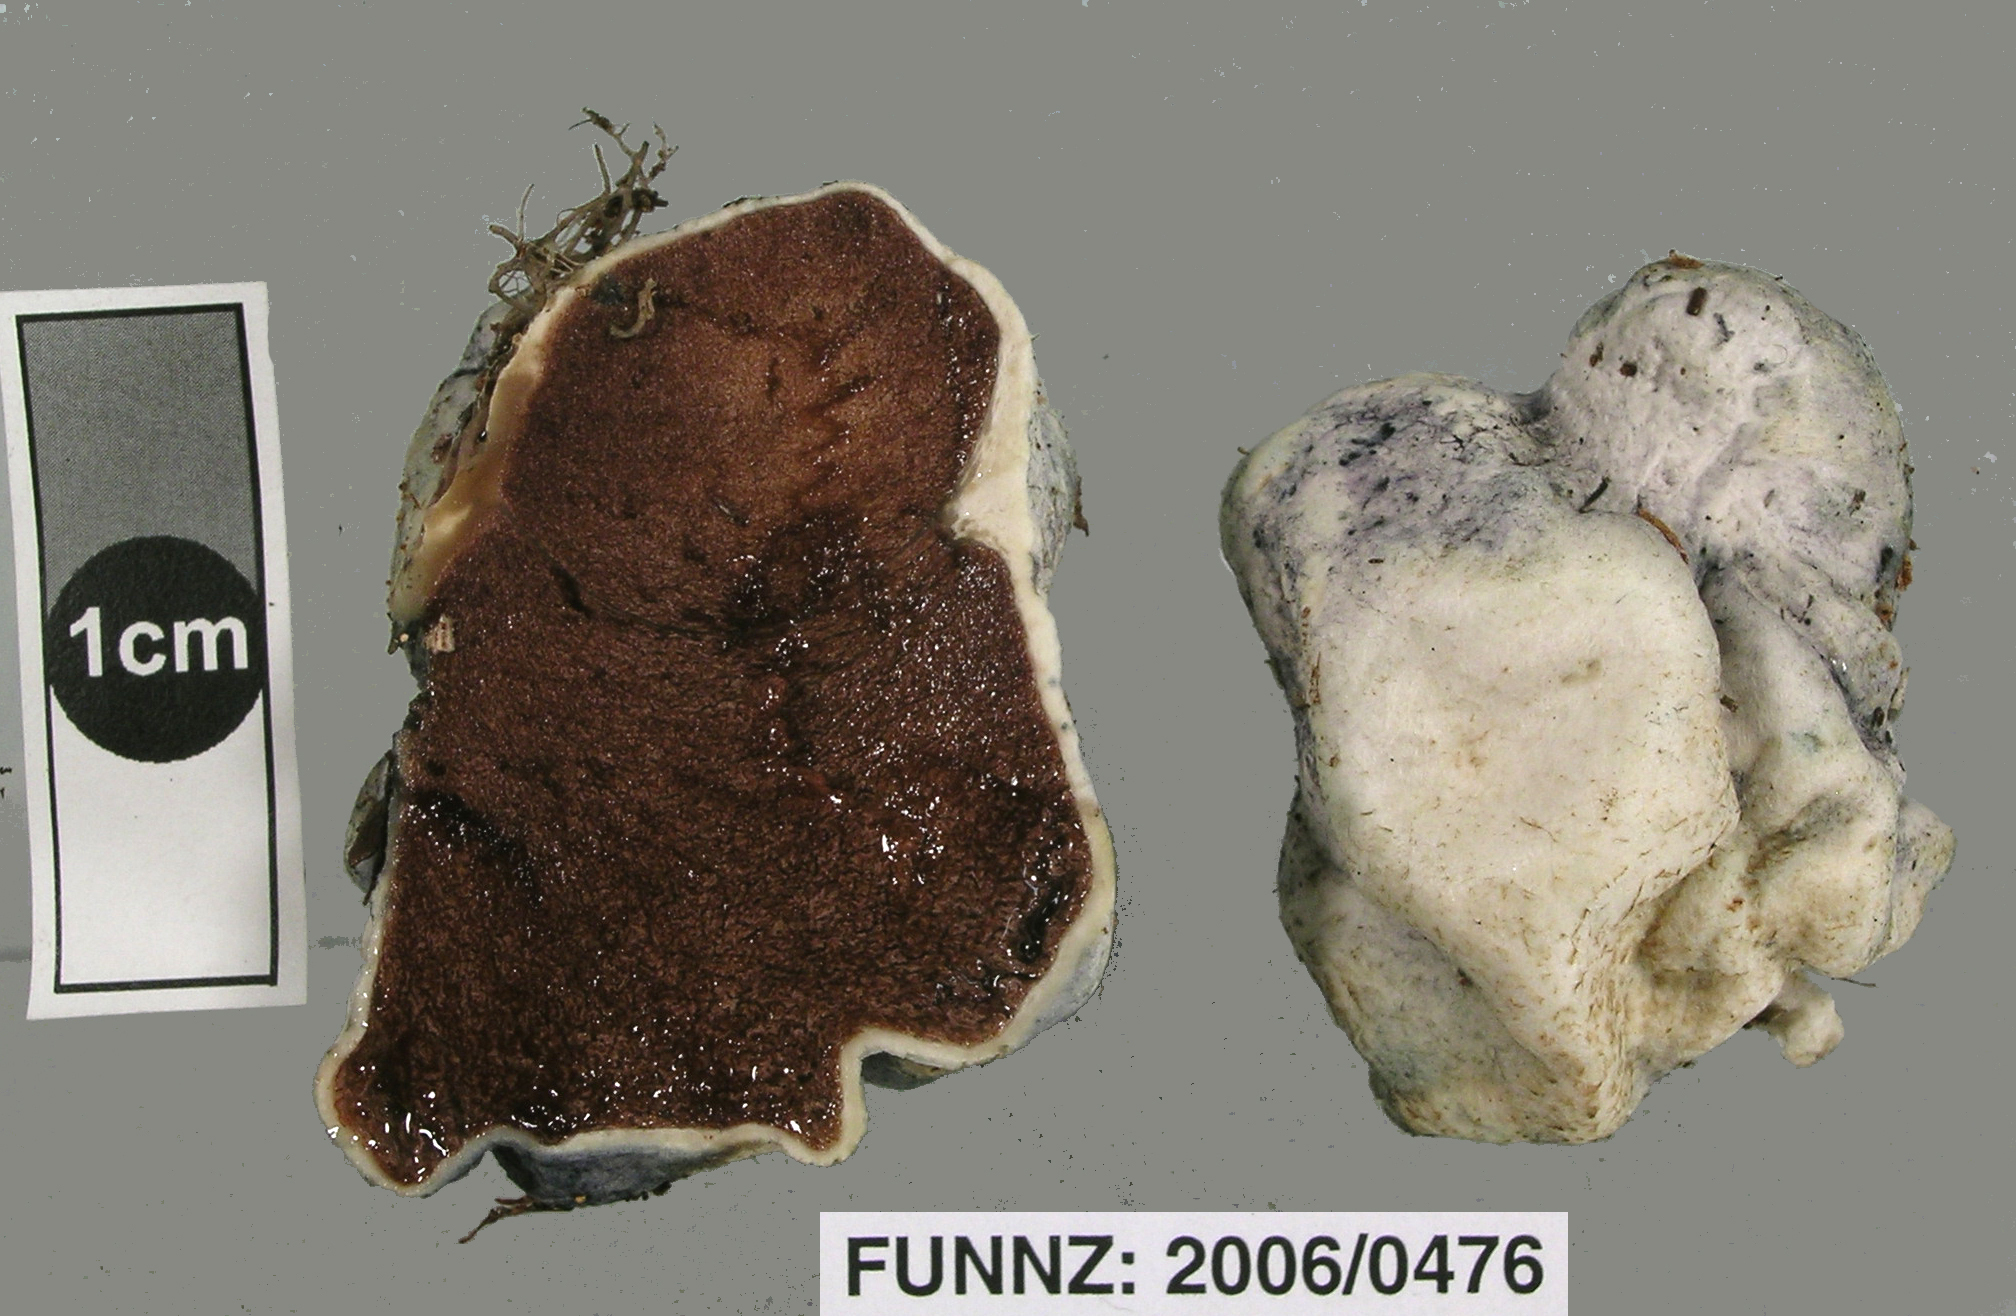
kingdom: Fungi
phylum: Basidiomycota
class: Agaricomycetes
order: Boletales
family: Boletaceae
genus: Leccinum
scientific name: Leccinum pachyderme
